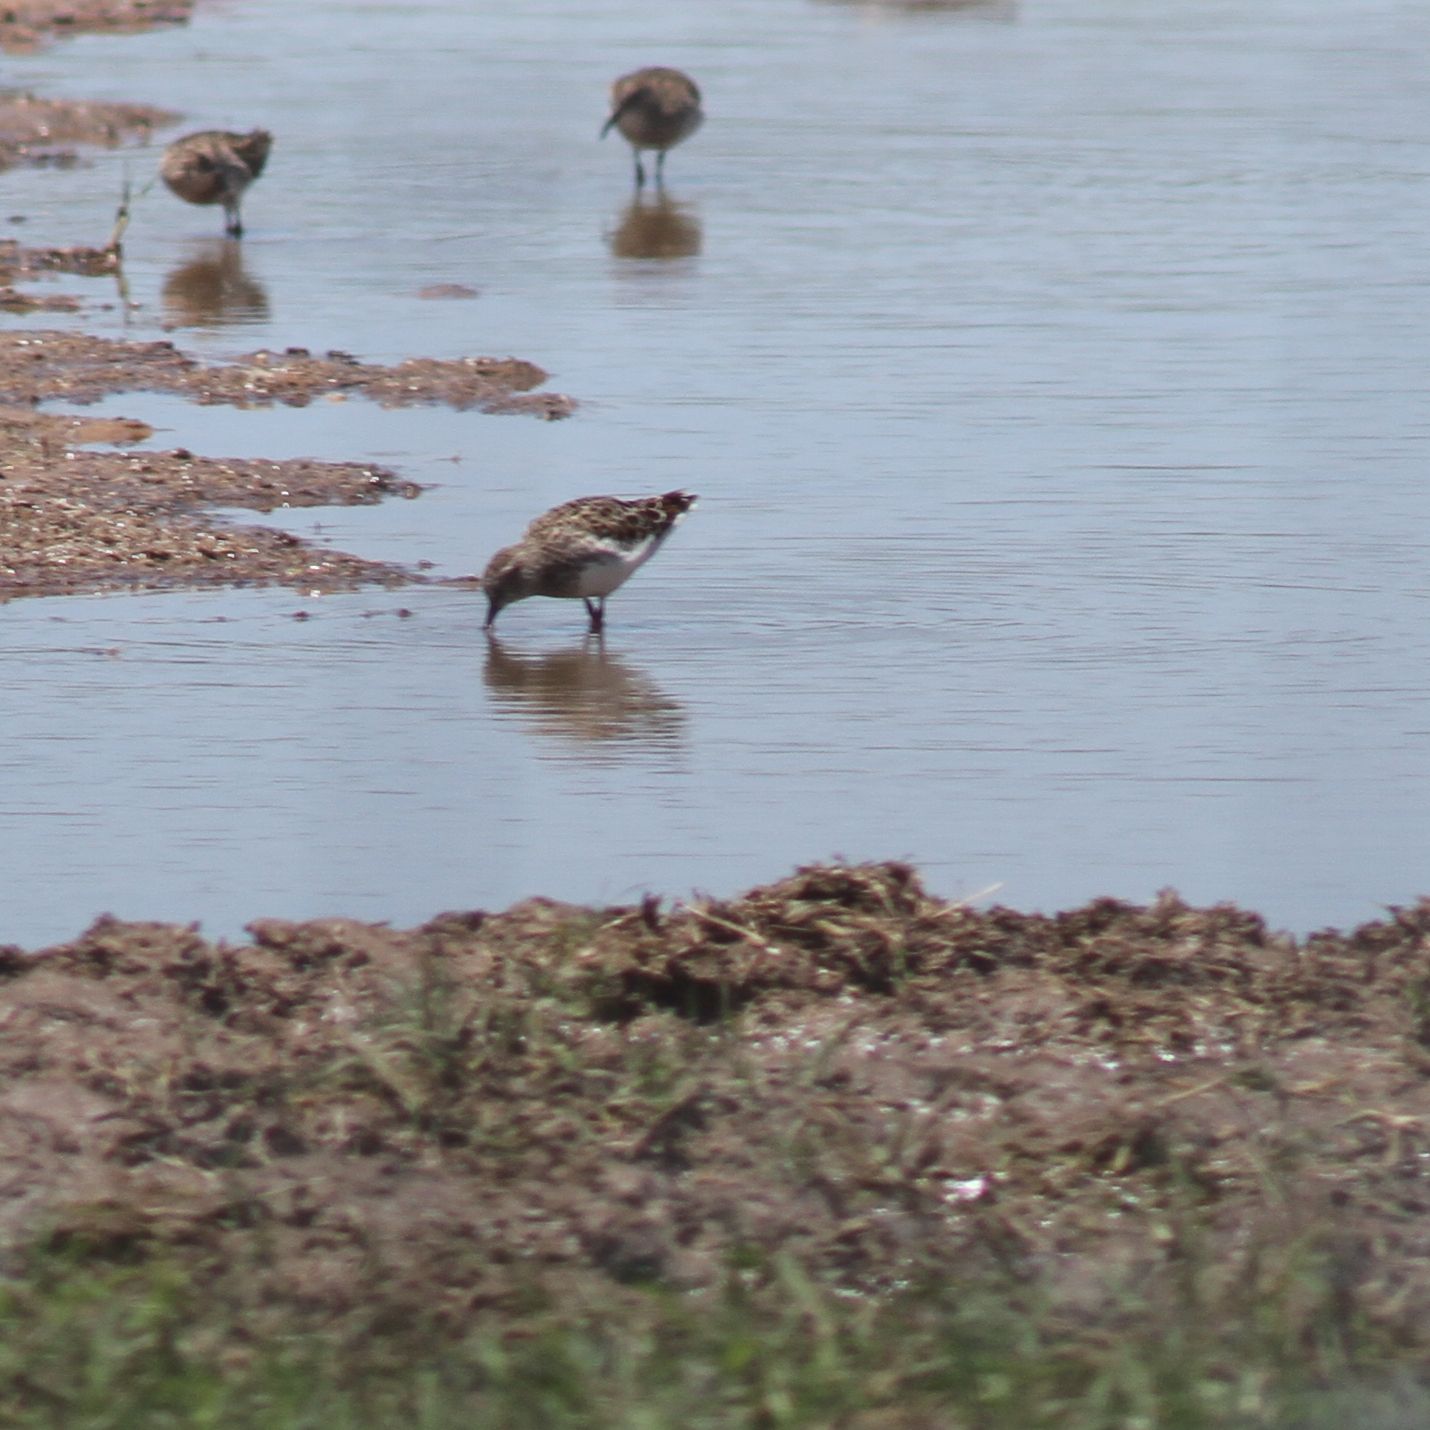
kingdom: Animalia
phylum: Chordata
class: Aves
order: Charadriiformes
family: Scolopacidae
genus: Calidris
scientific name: Calidris minutilla
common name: Least sandpiper
